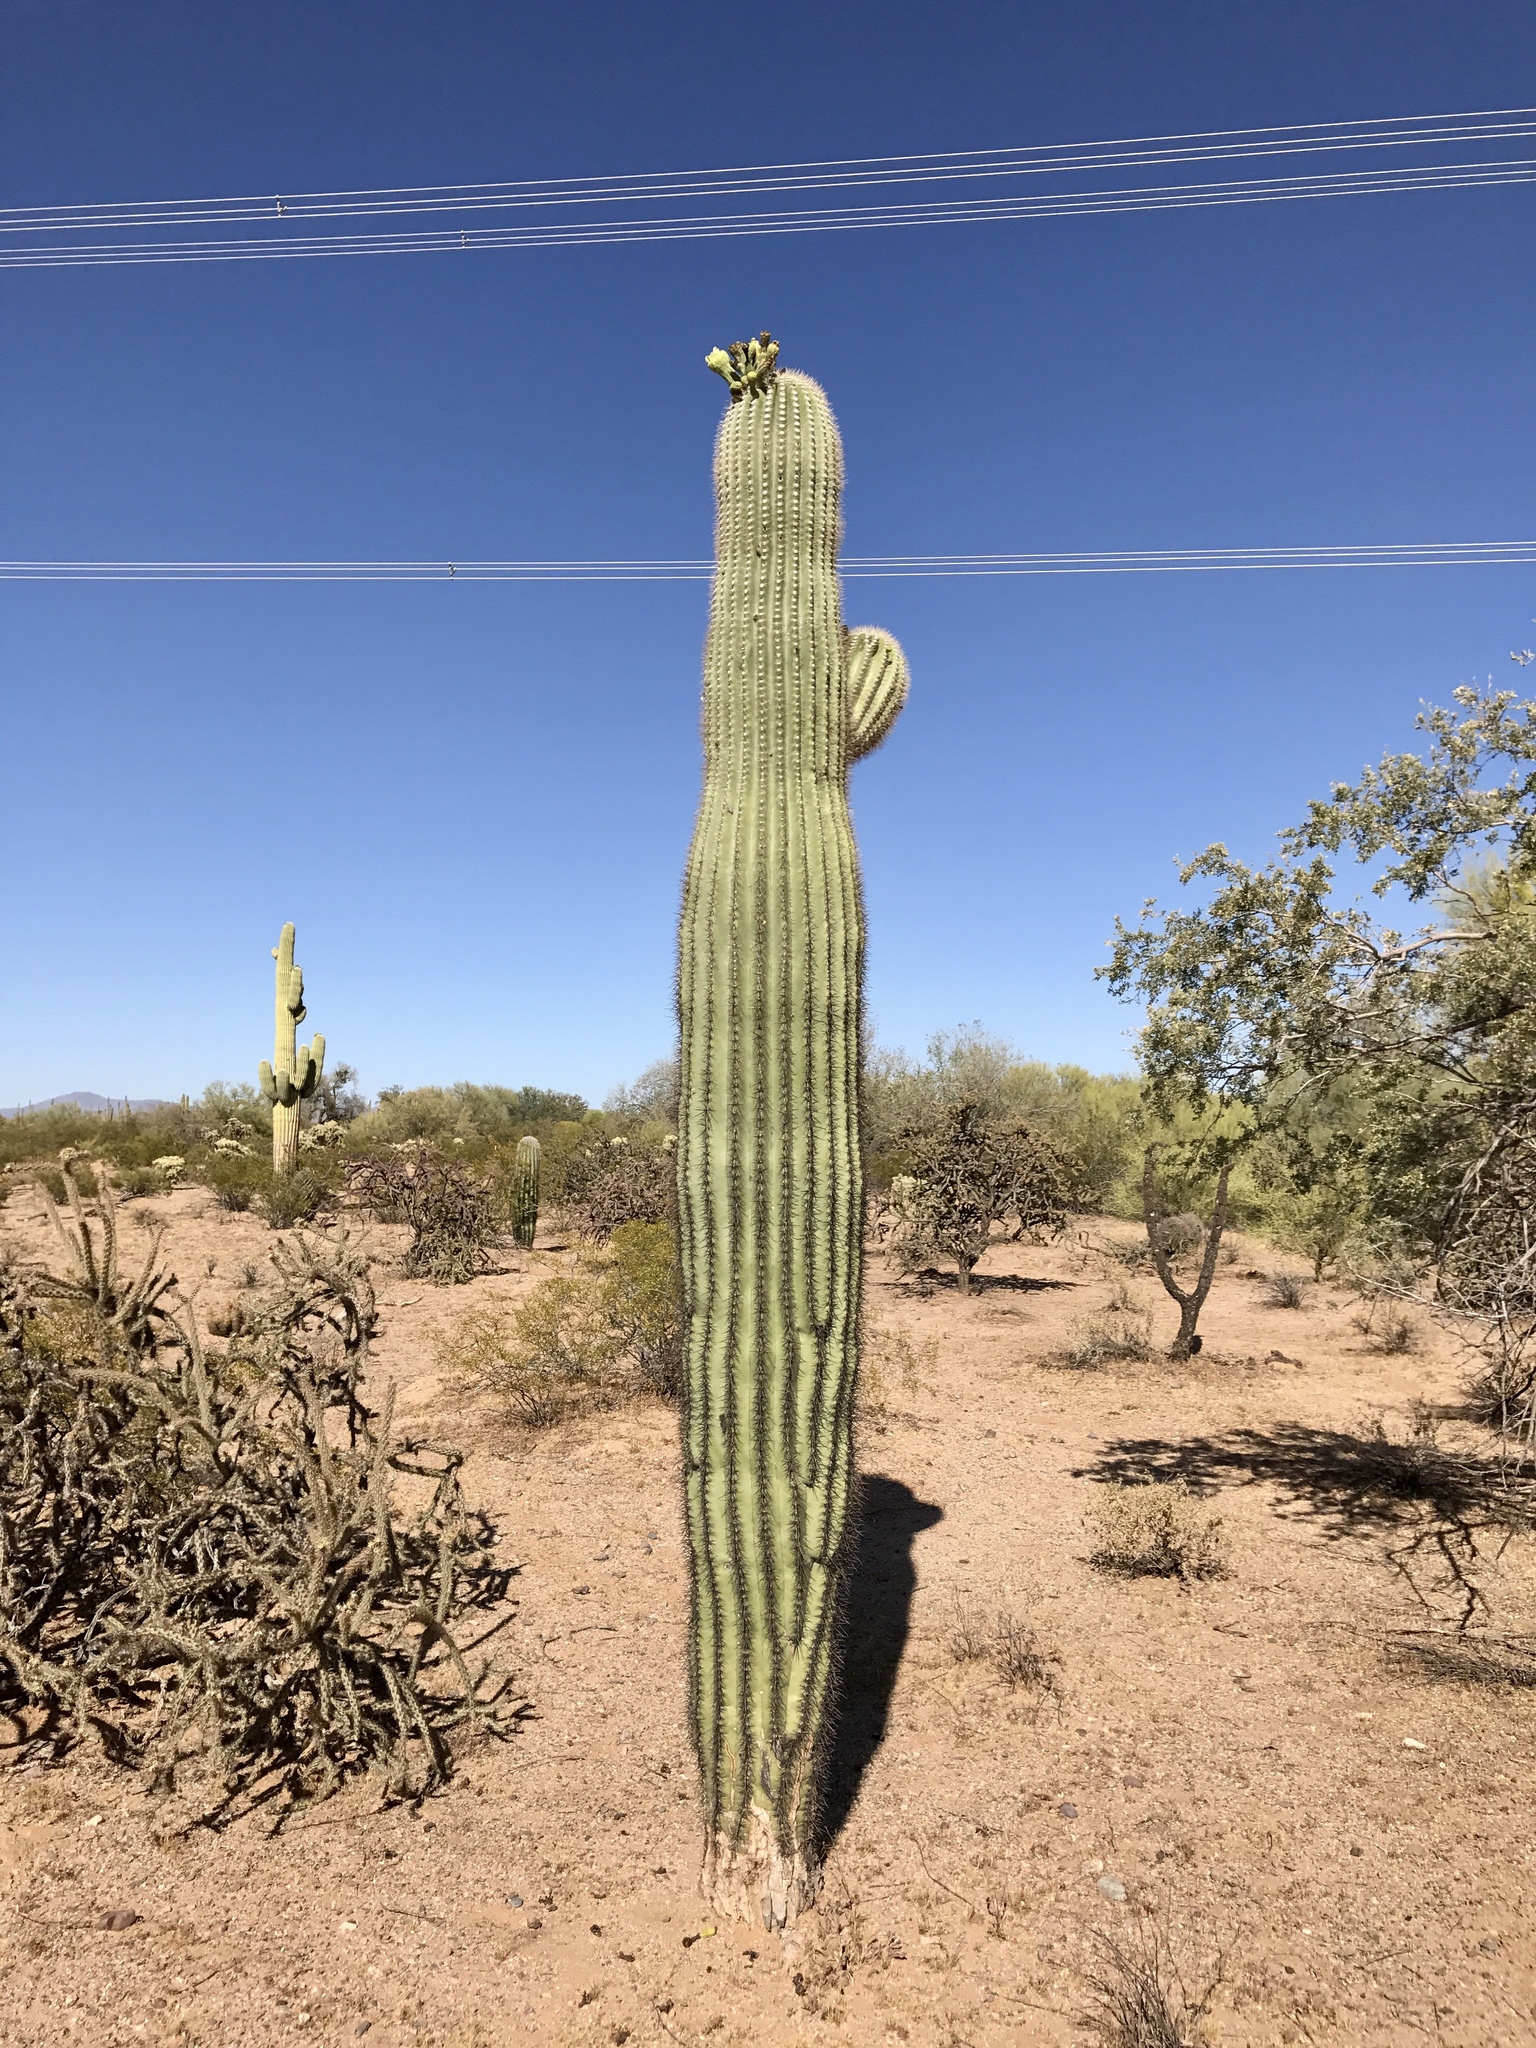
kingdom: Plantae
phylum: Tracheophyta
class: Magnoliopsida
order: Caryophyllales
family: Cactaceae
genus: Carnegiea
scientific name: Carnegiea gigantea
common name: Saguaro
